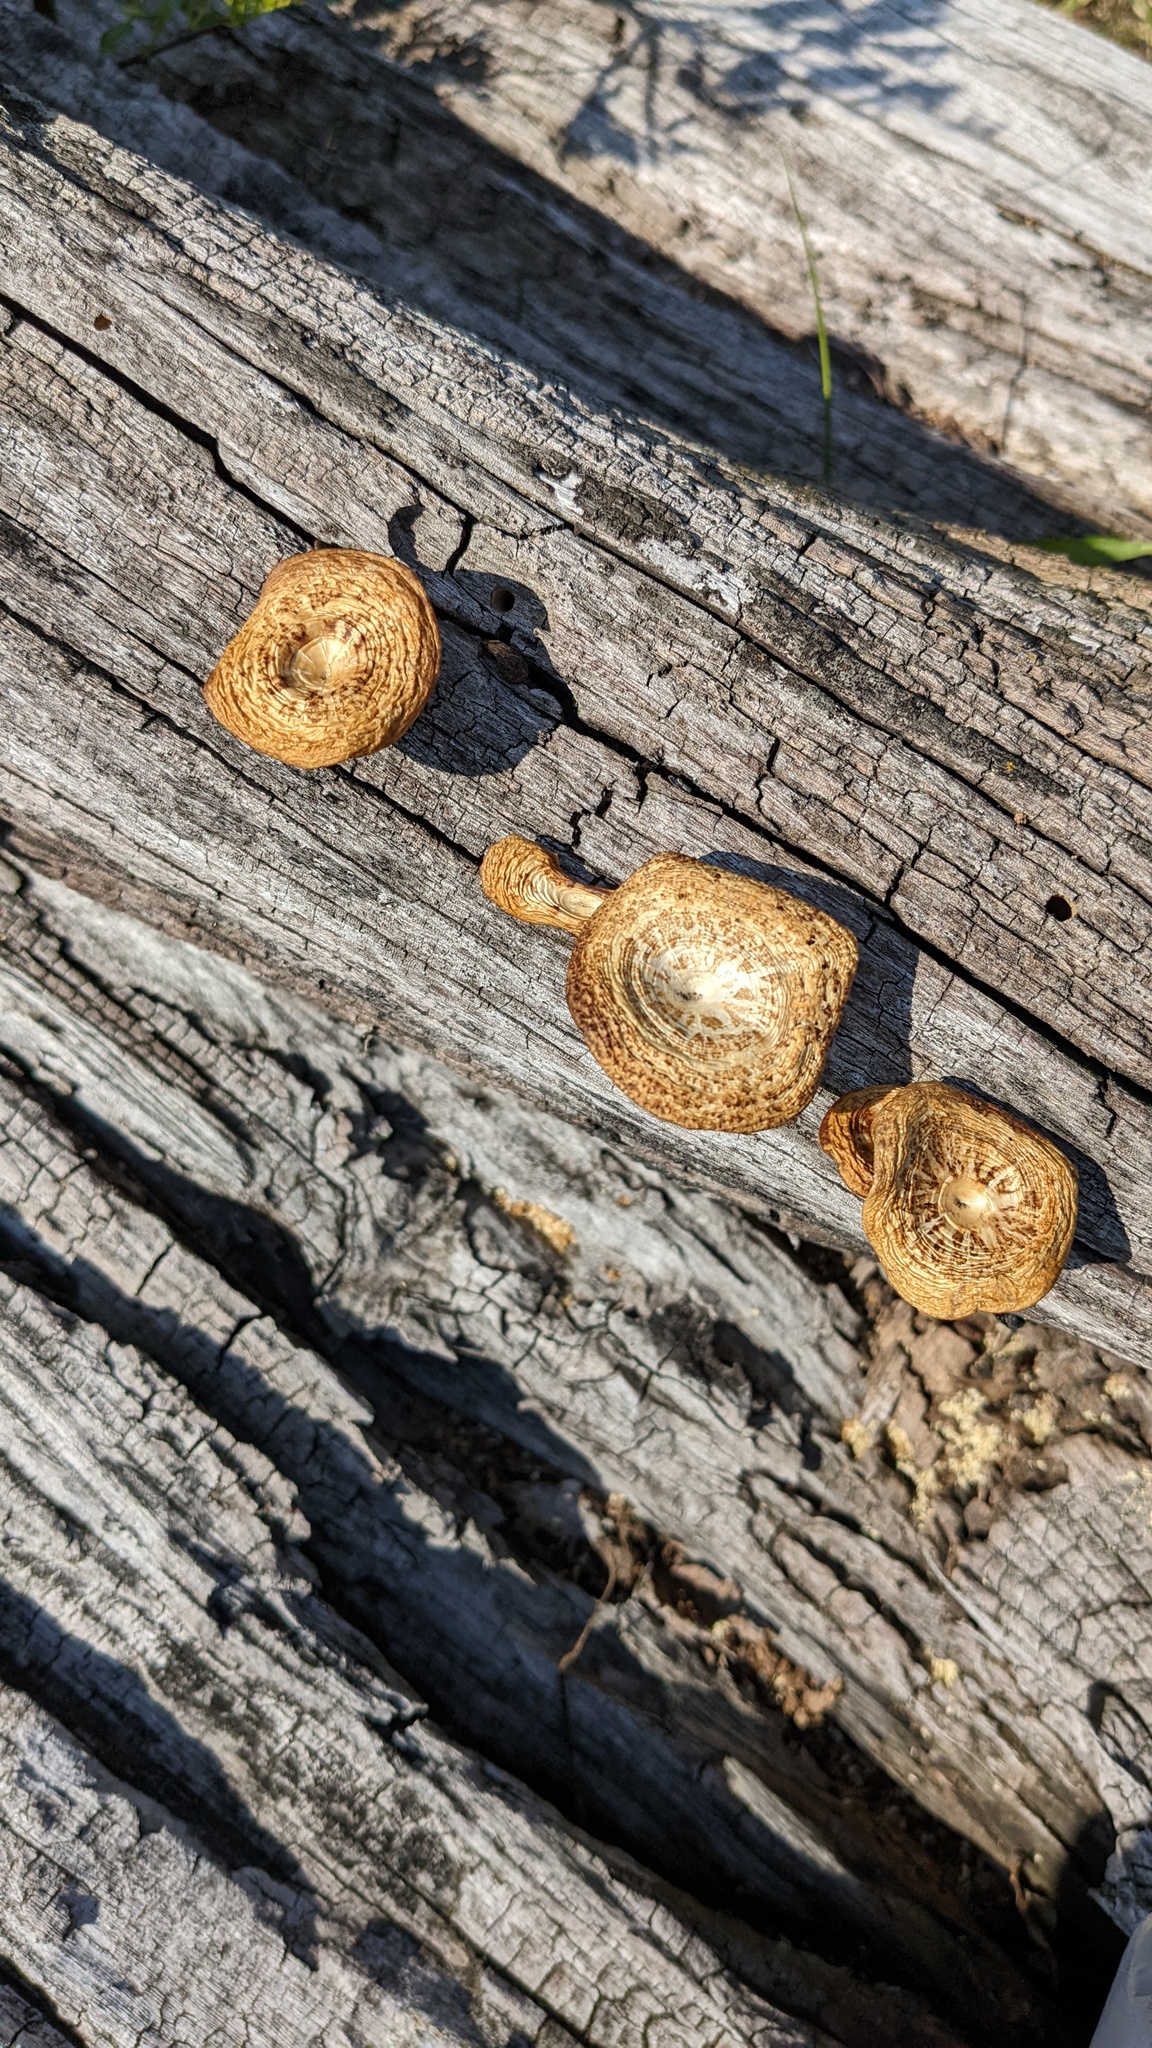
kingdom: Fungi
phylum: Basidiomycota
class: Agaricomycetes
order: Polyporales
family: Polyporaceae
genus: Lentinus
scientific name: Lentinus arcularius
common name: Spring polypore
